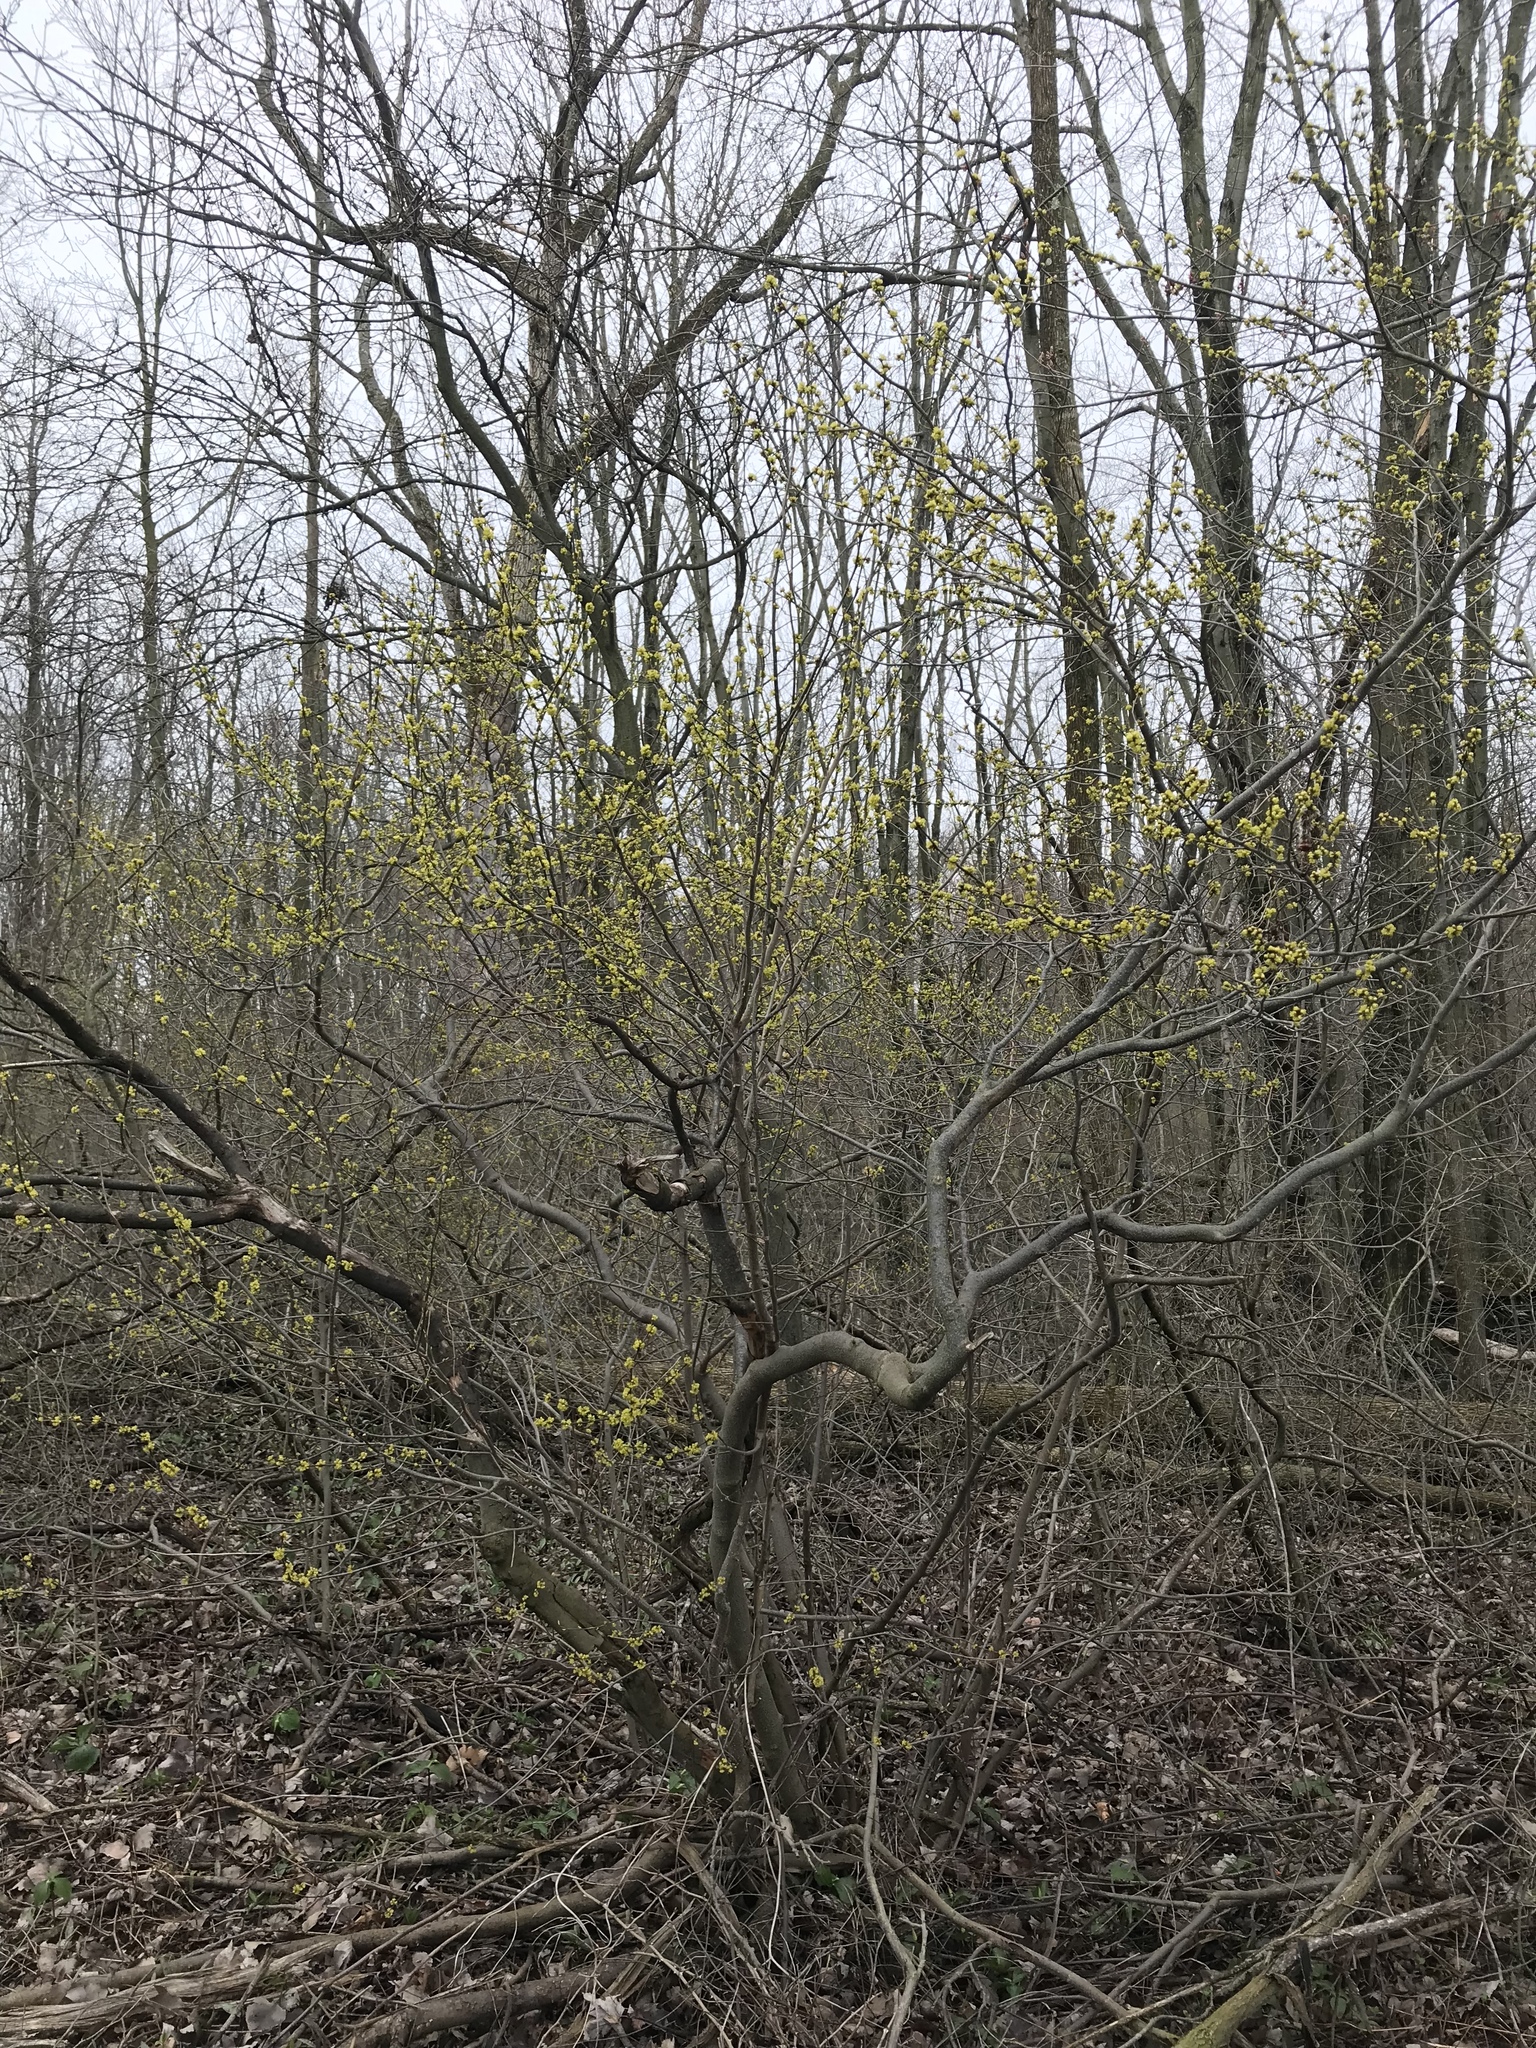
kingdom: Plantae
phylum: Tracheophyta
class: Magnoliopsida
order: Laurales
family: Lauraceae
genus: Lindera
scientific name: Lindera benzoin
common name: Spicebush
